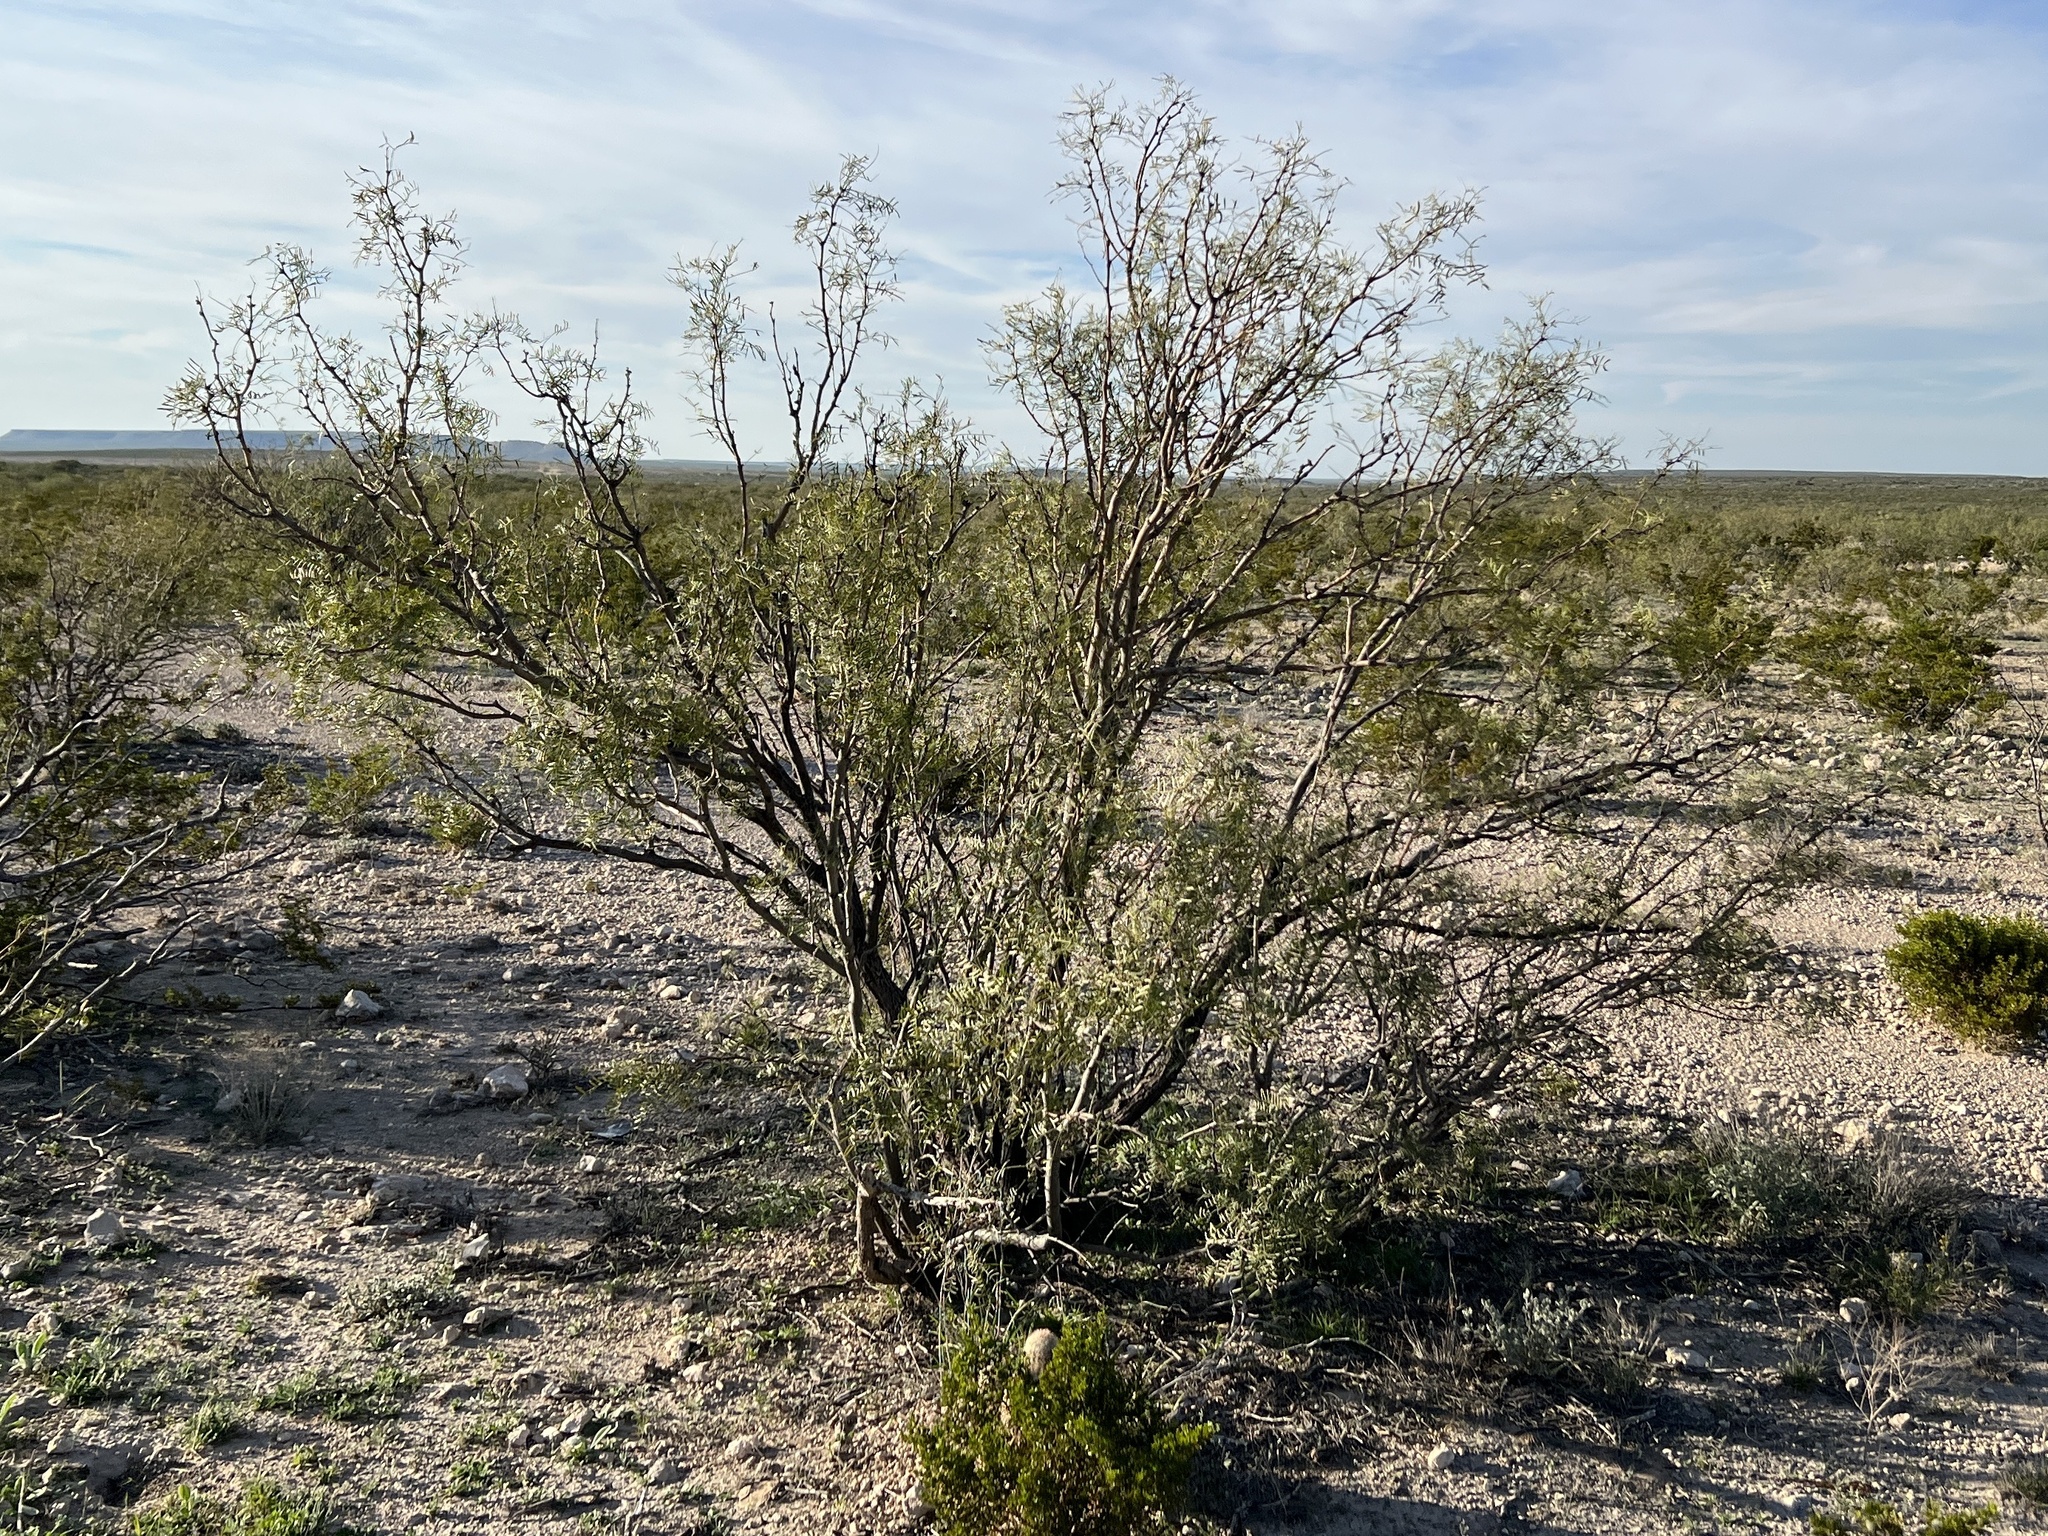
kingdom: Plantae
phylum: Tracheophyta
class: Magnoliopsida
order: Fabales
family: Fabaceae
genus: Prosopis
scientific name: Prosopis pubescens
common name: Screw-bean
